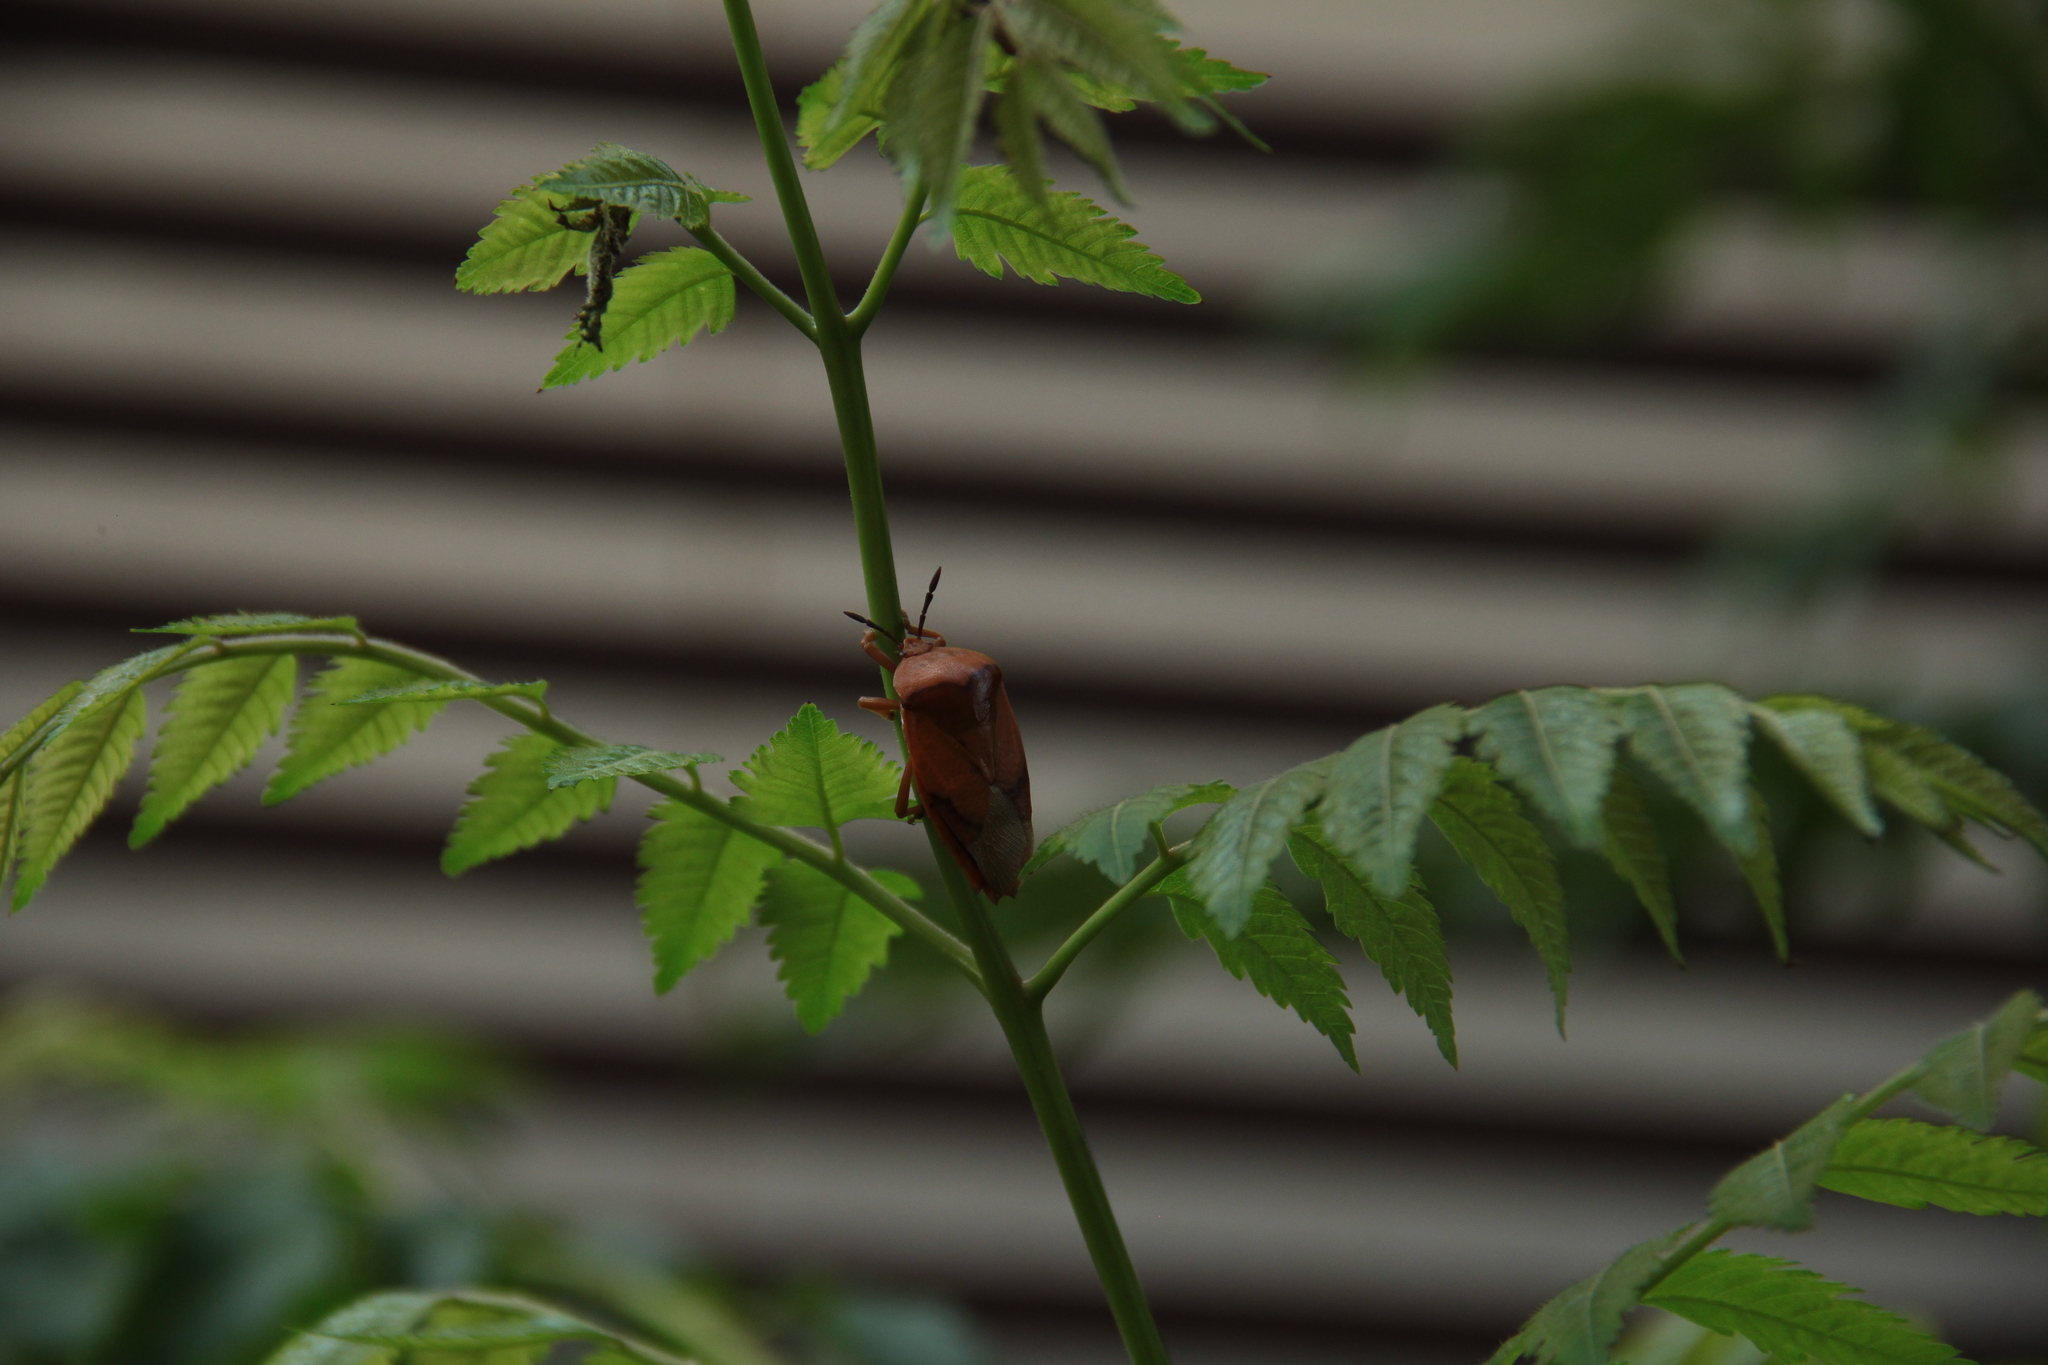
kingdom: Animalia
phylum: Arthropoda
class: Insecta
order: Hemiptera
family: Tessaratomidae
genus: Tessaratoma
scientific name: Tessaratoma papillosa
